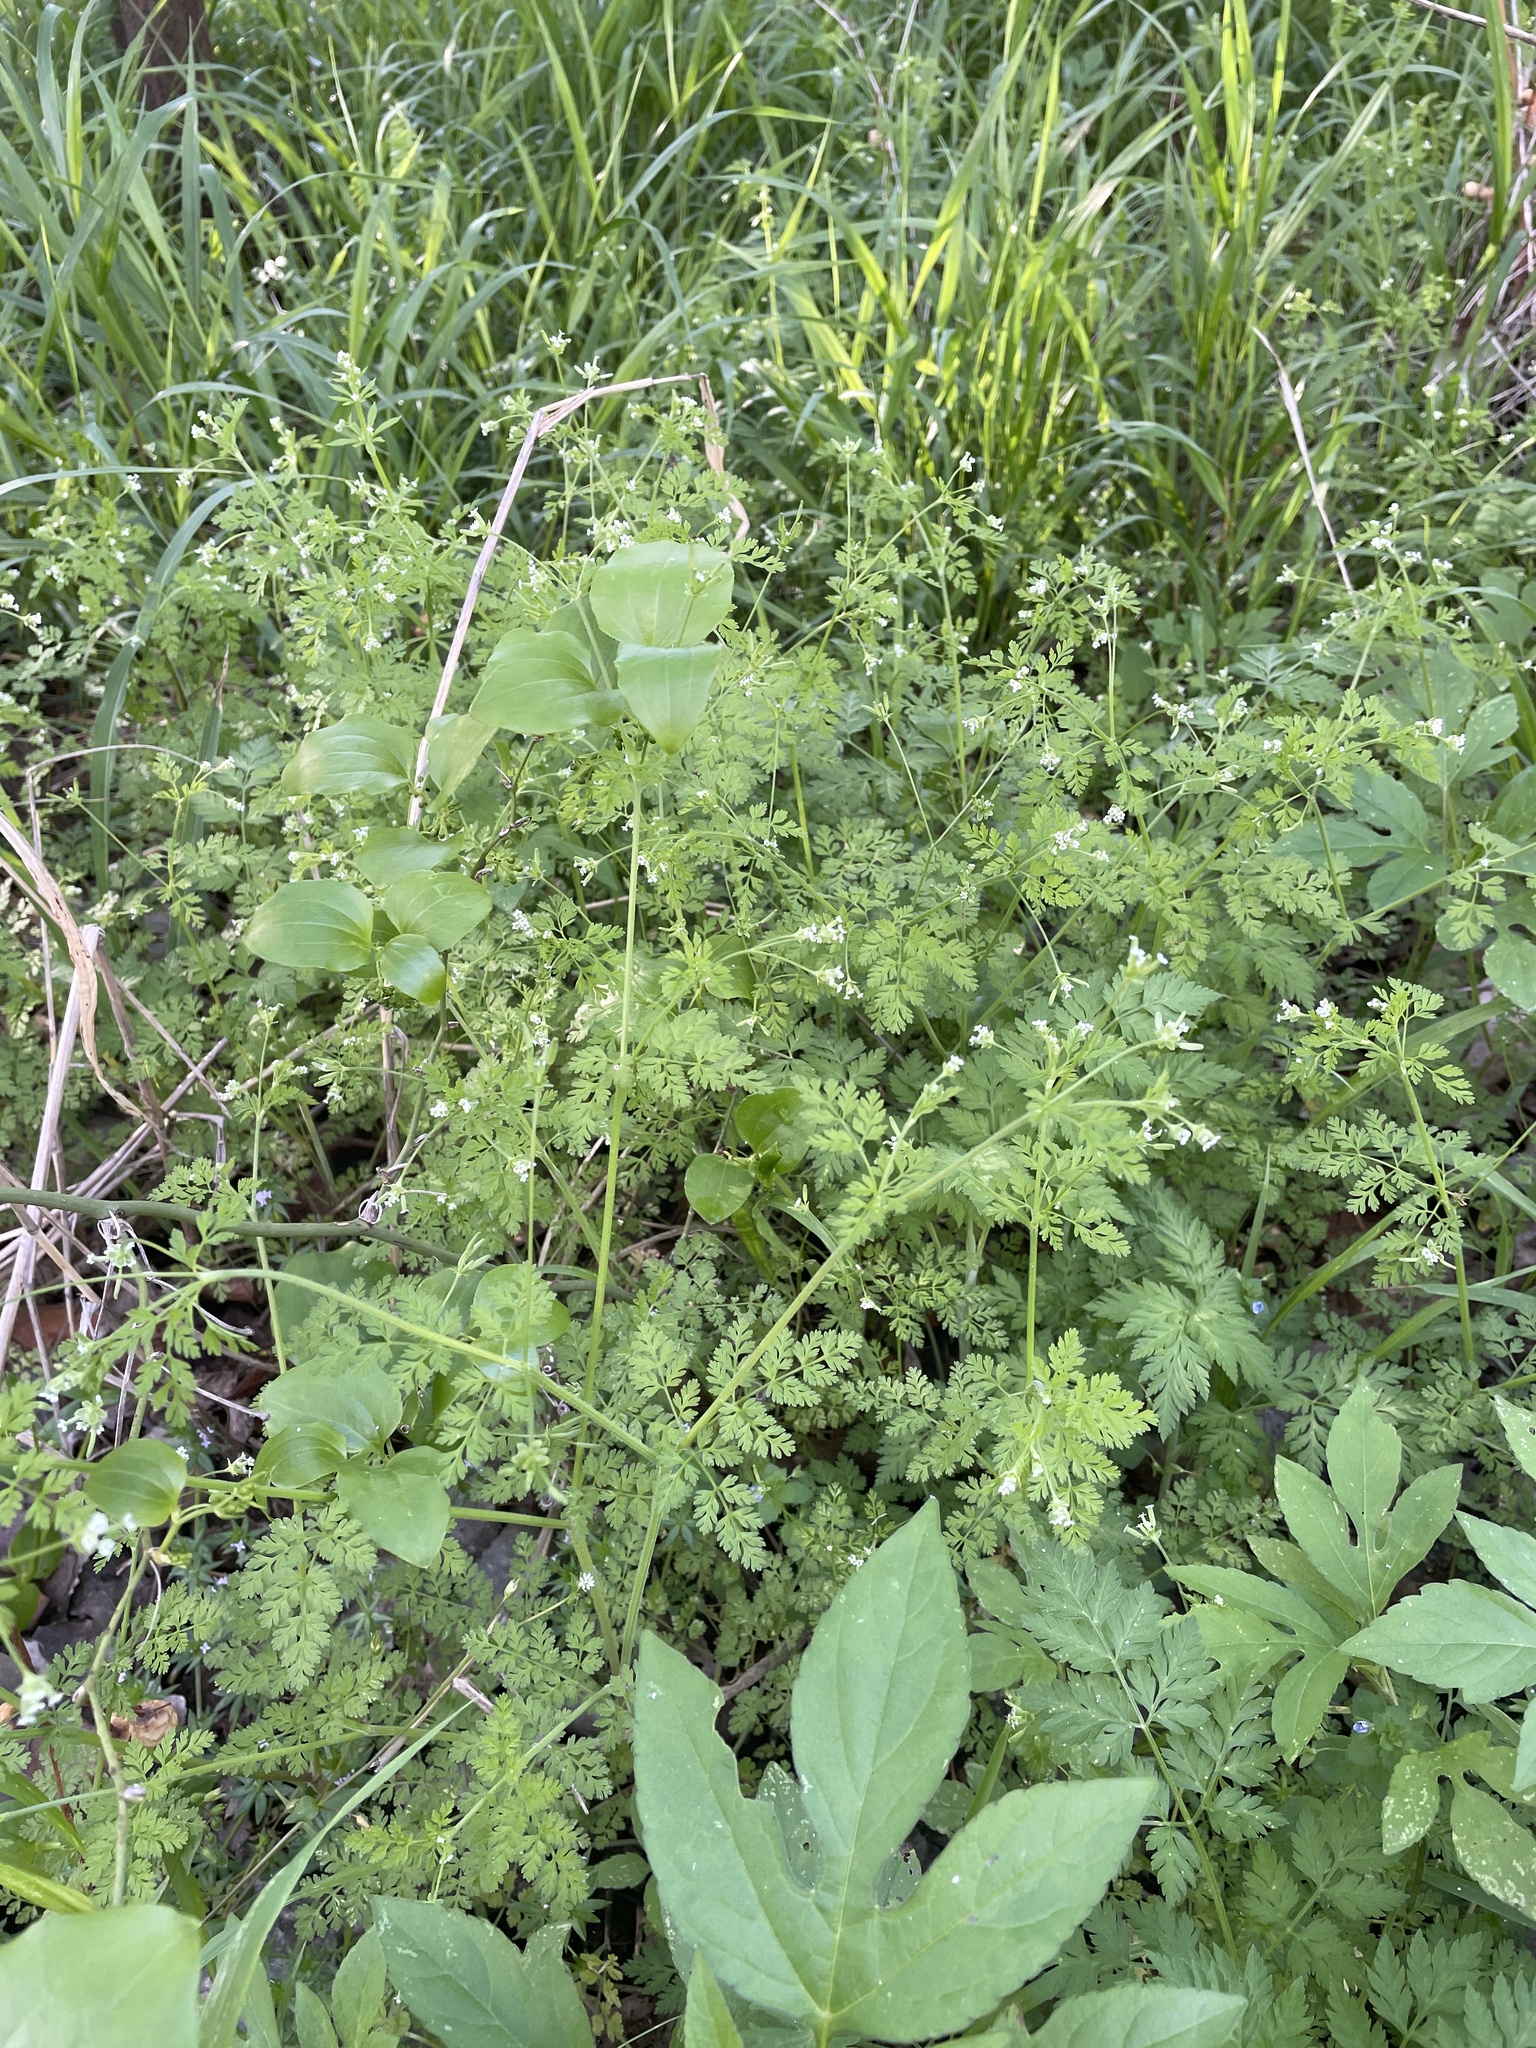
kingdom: Plantae
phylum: Tracheophyta
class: Magnoliopsida
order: Apiales
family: Apiaceae
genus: Chaerophyllum
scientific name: Chaerophyllum tainturieri
